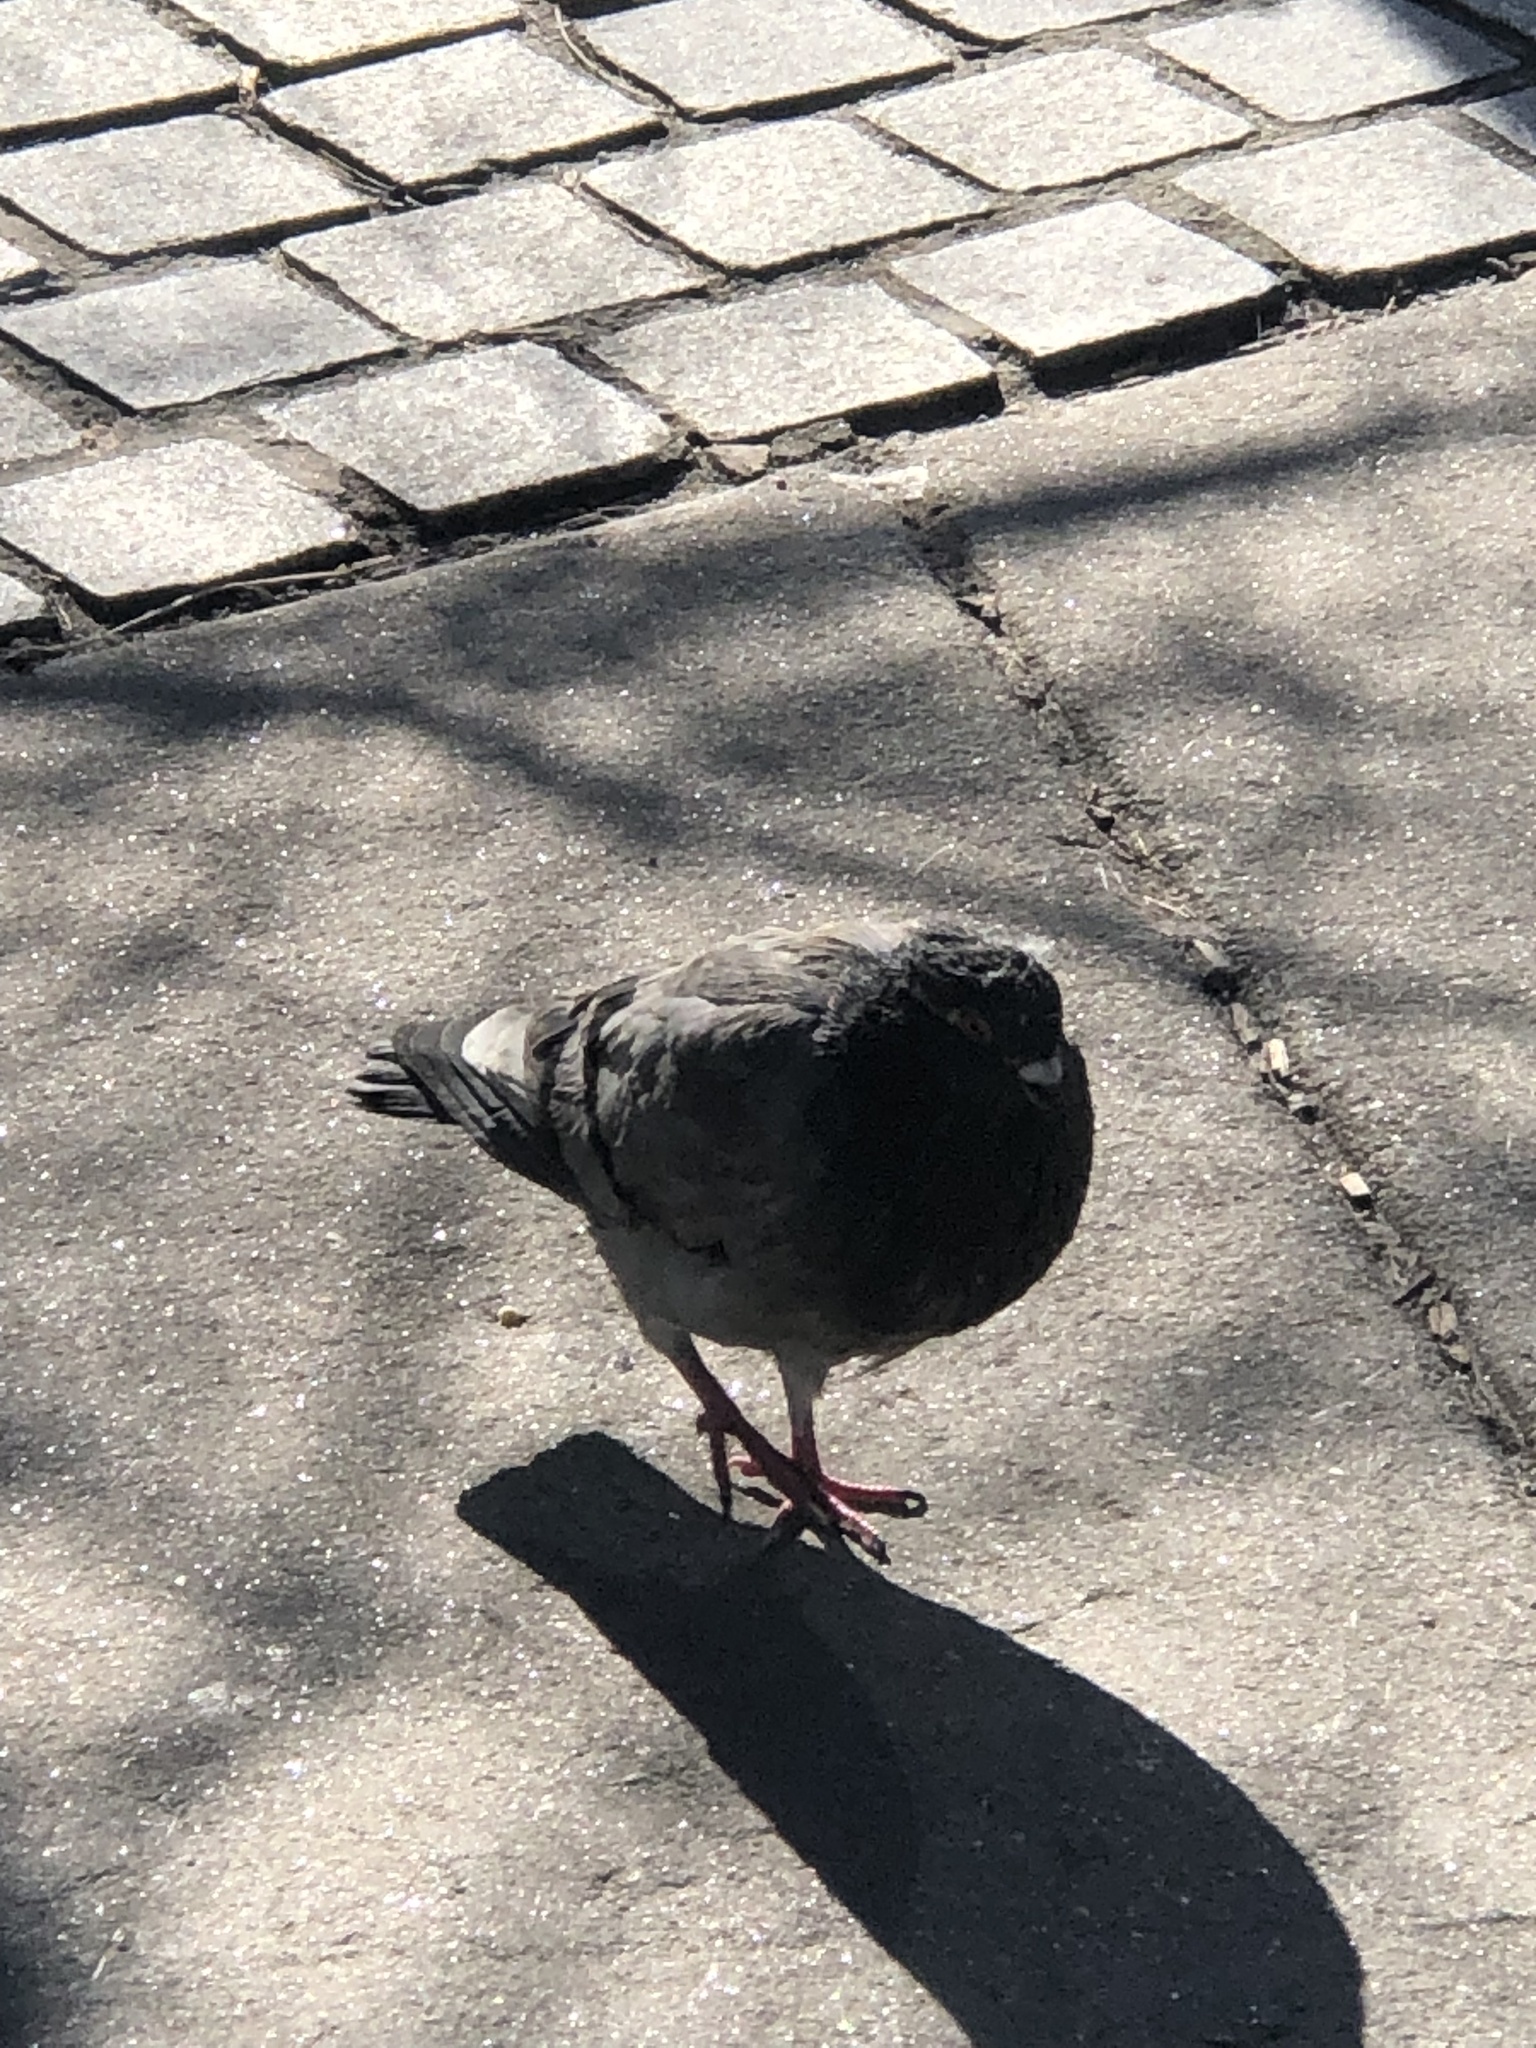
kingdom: Animalia
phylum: Chordata
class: Aves
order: Columbiformes
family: Columbidae
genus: Columba
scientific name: Columba livia
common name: Rock pigeon
